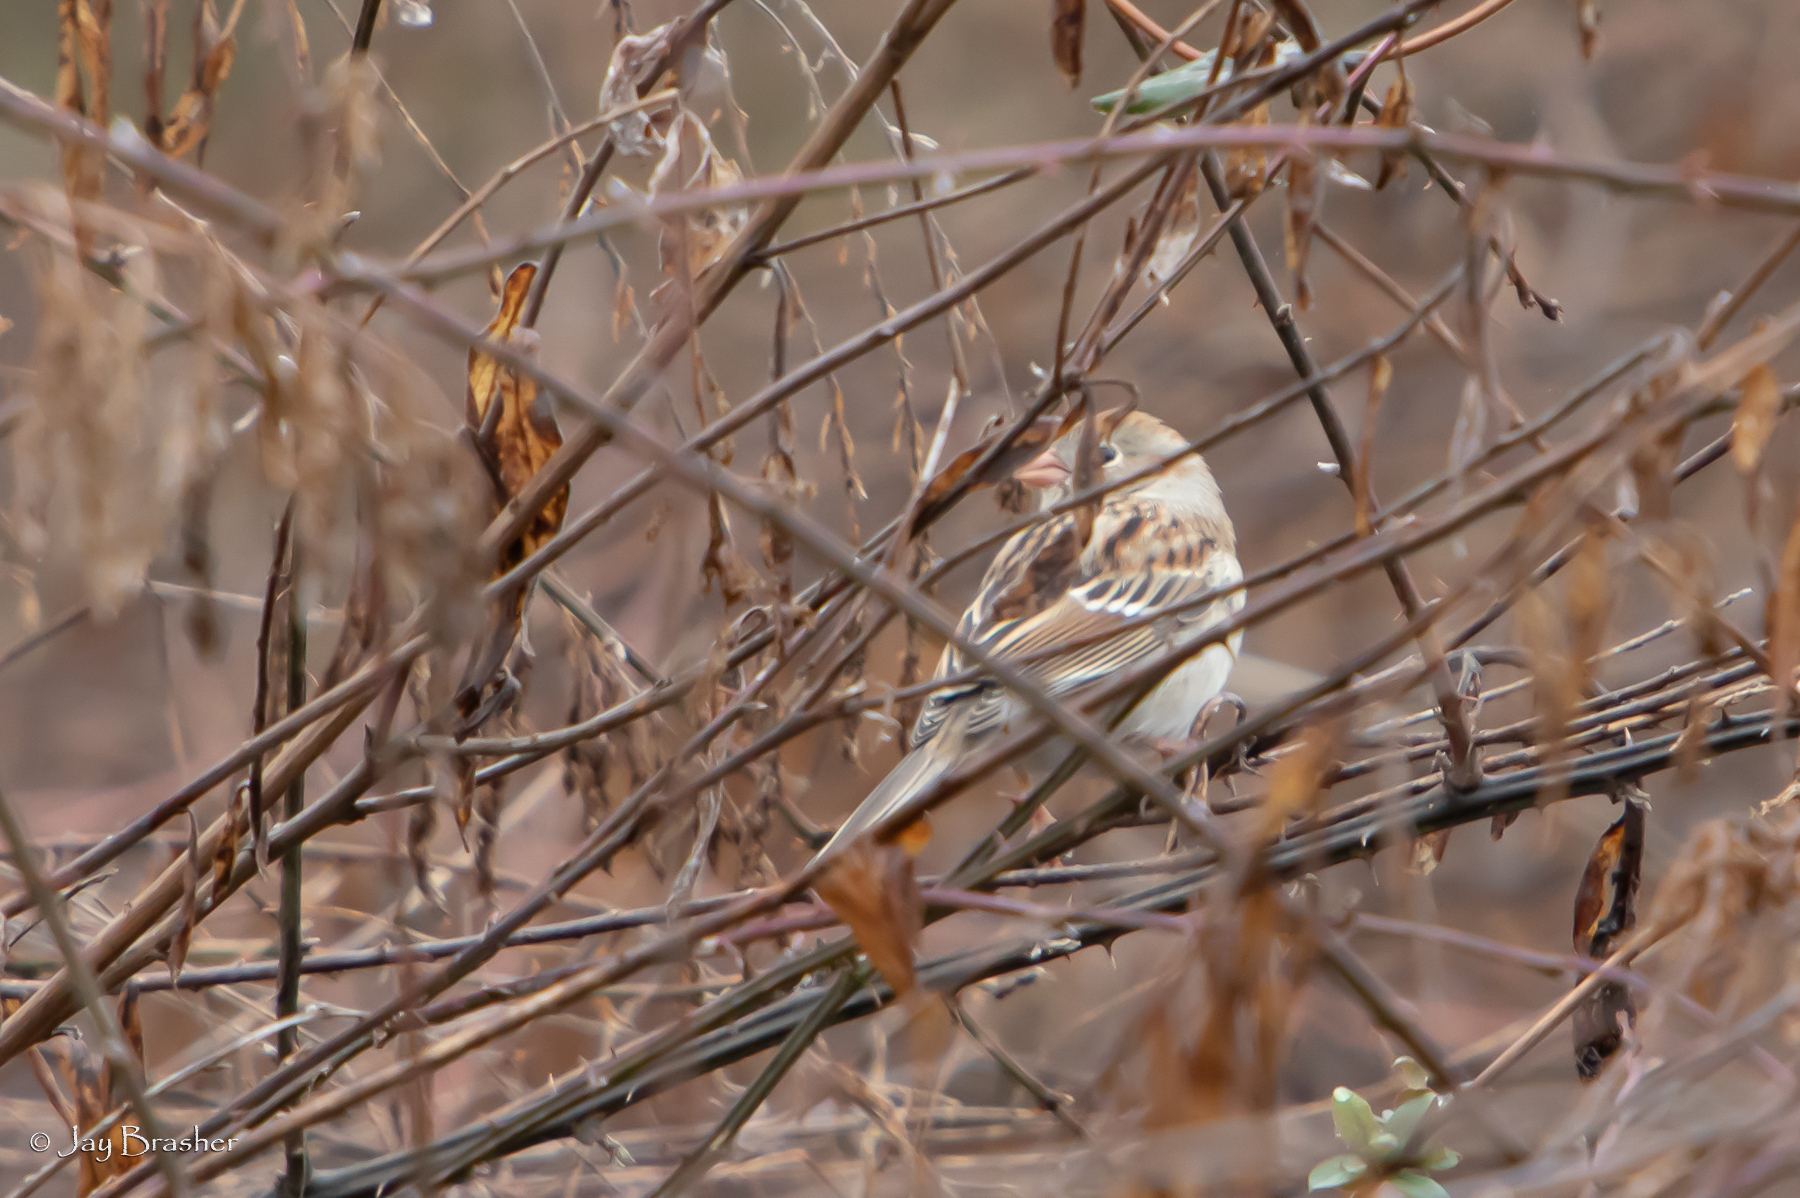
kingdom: Animalia
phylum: Chordata
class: Aves
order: Passeriformes
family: Passerellidae
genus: Spizella
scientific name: Spizella pusilla
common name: Field sparrow
